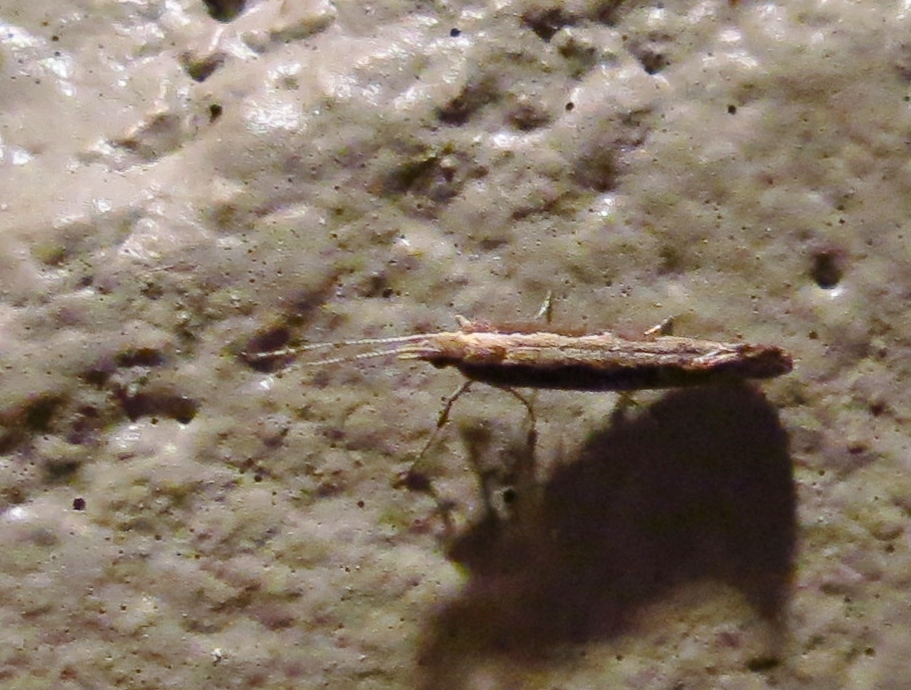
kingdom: Animalia
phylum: Arthropoda
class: Insecta
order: Lepidoptera
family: Plutellidae
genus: Plutella
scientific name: Plutella xylostella
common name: Diamond-back moth
